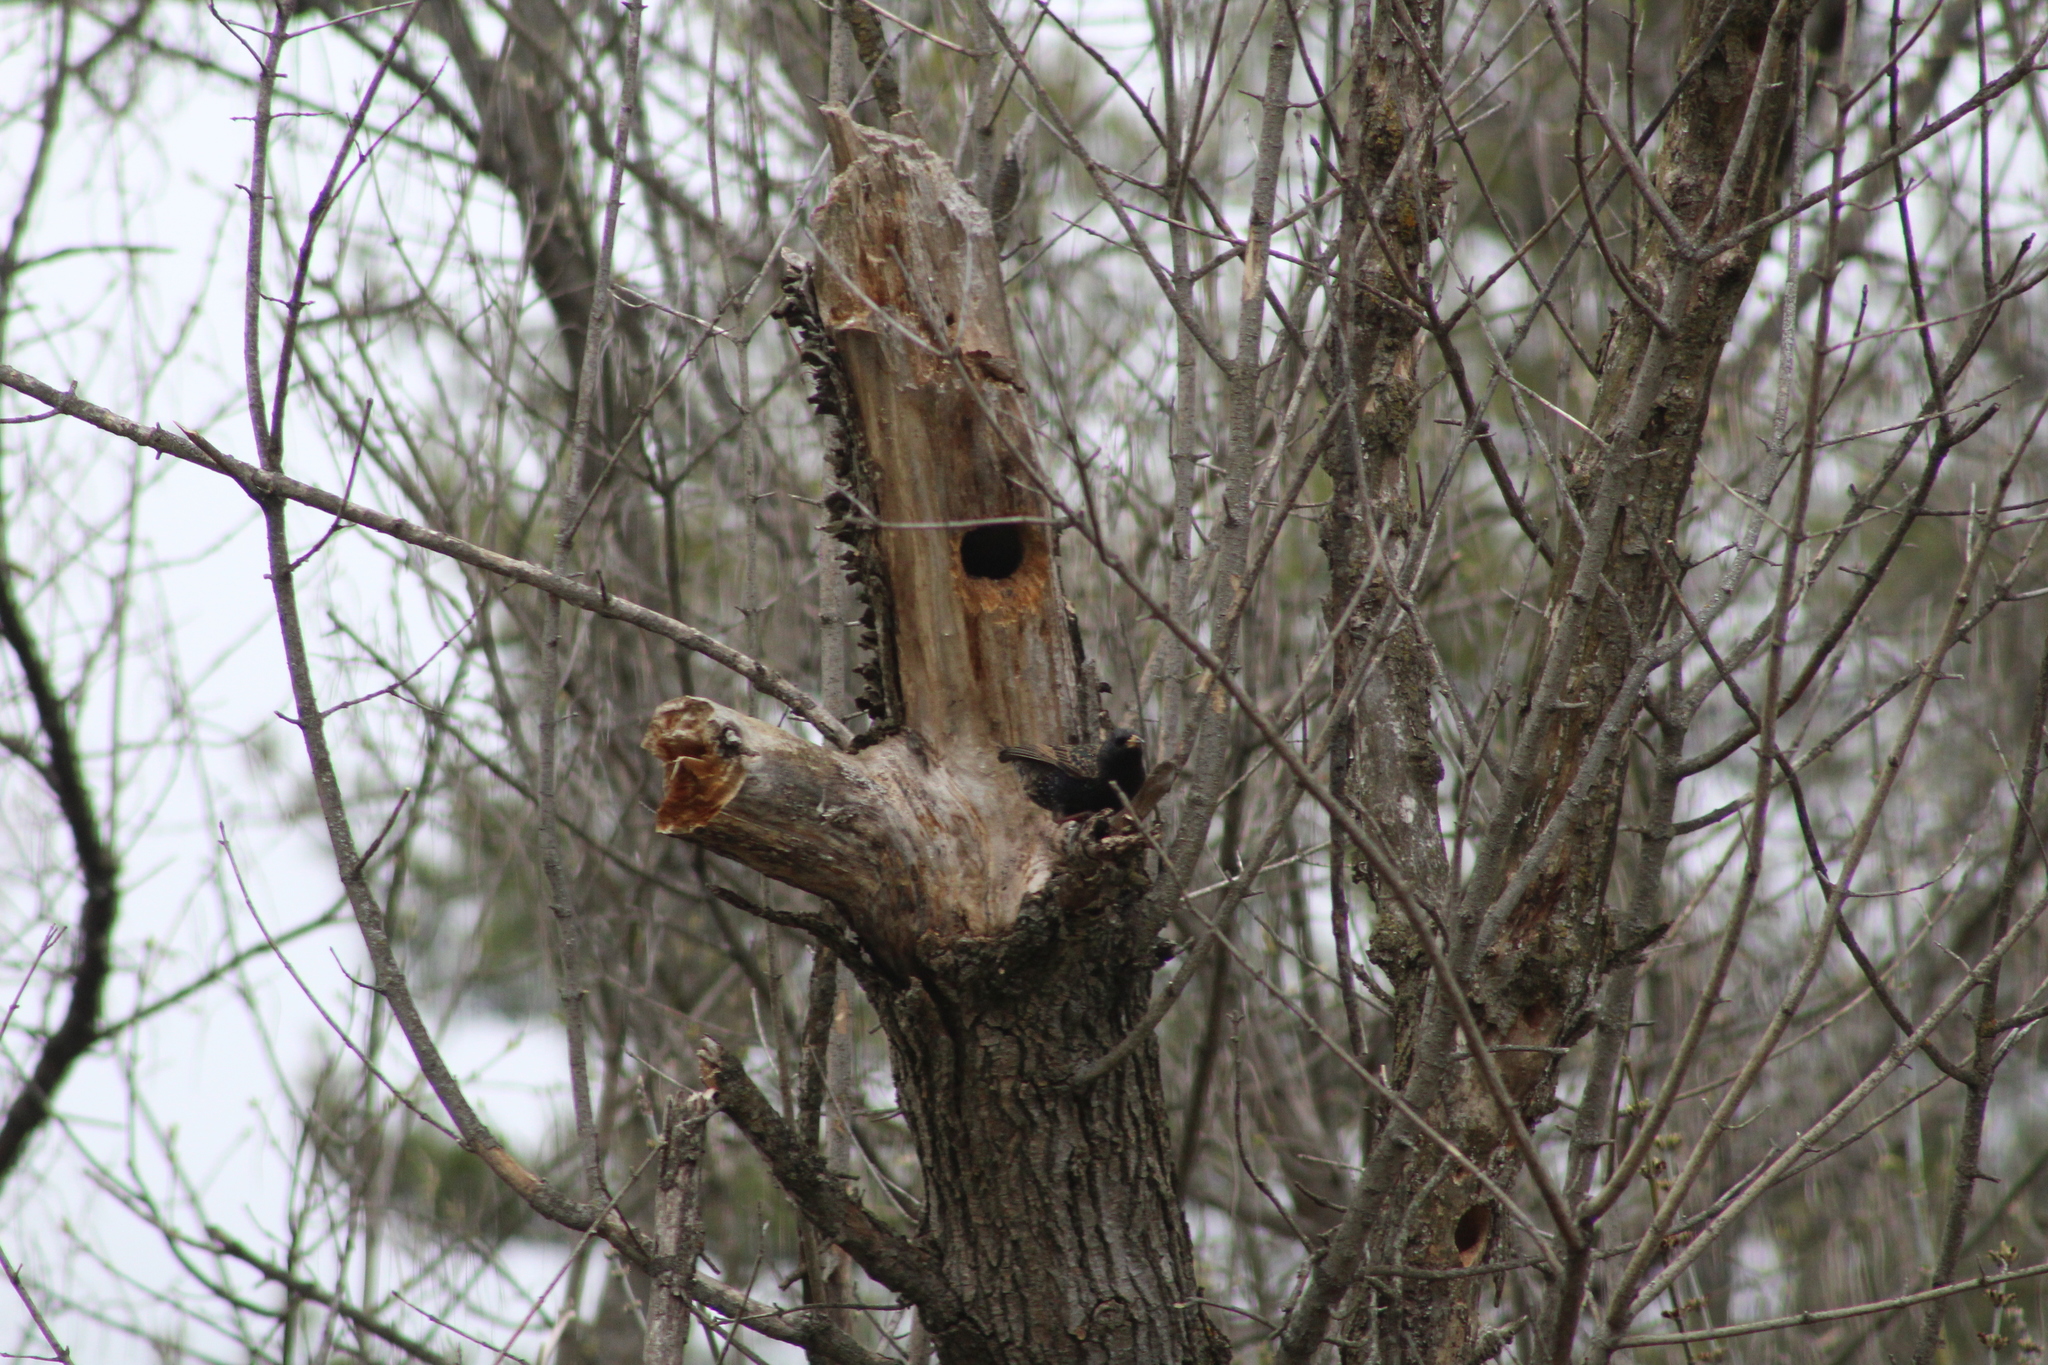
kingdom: Animalia
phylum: Chordata
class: Aves
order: Passeriformes
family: Sturnidae
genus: Sturnus
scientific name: Sturnus vulgaris
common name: Common starling
